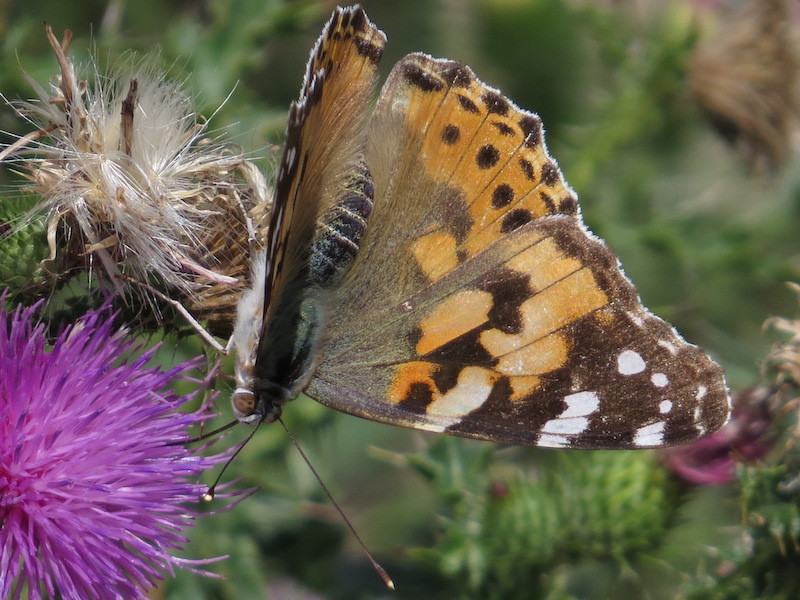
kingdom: Animalia
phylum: Arthropoda
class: Insecta
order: Lepidoptera
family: Nymphalidae
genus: Vanessa
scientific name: Vanessa cardui
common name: Painted lady
